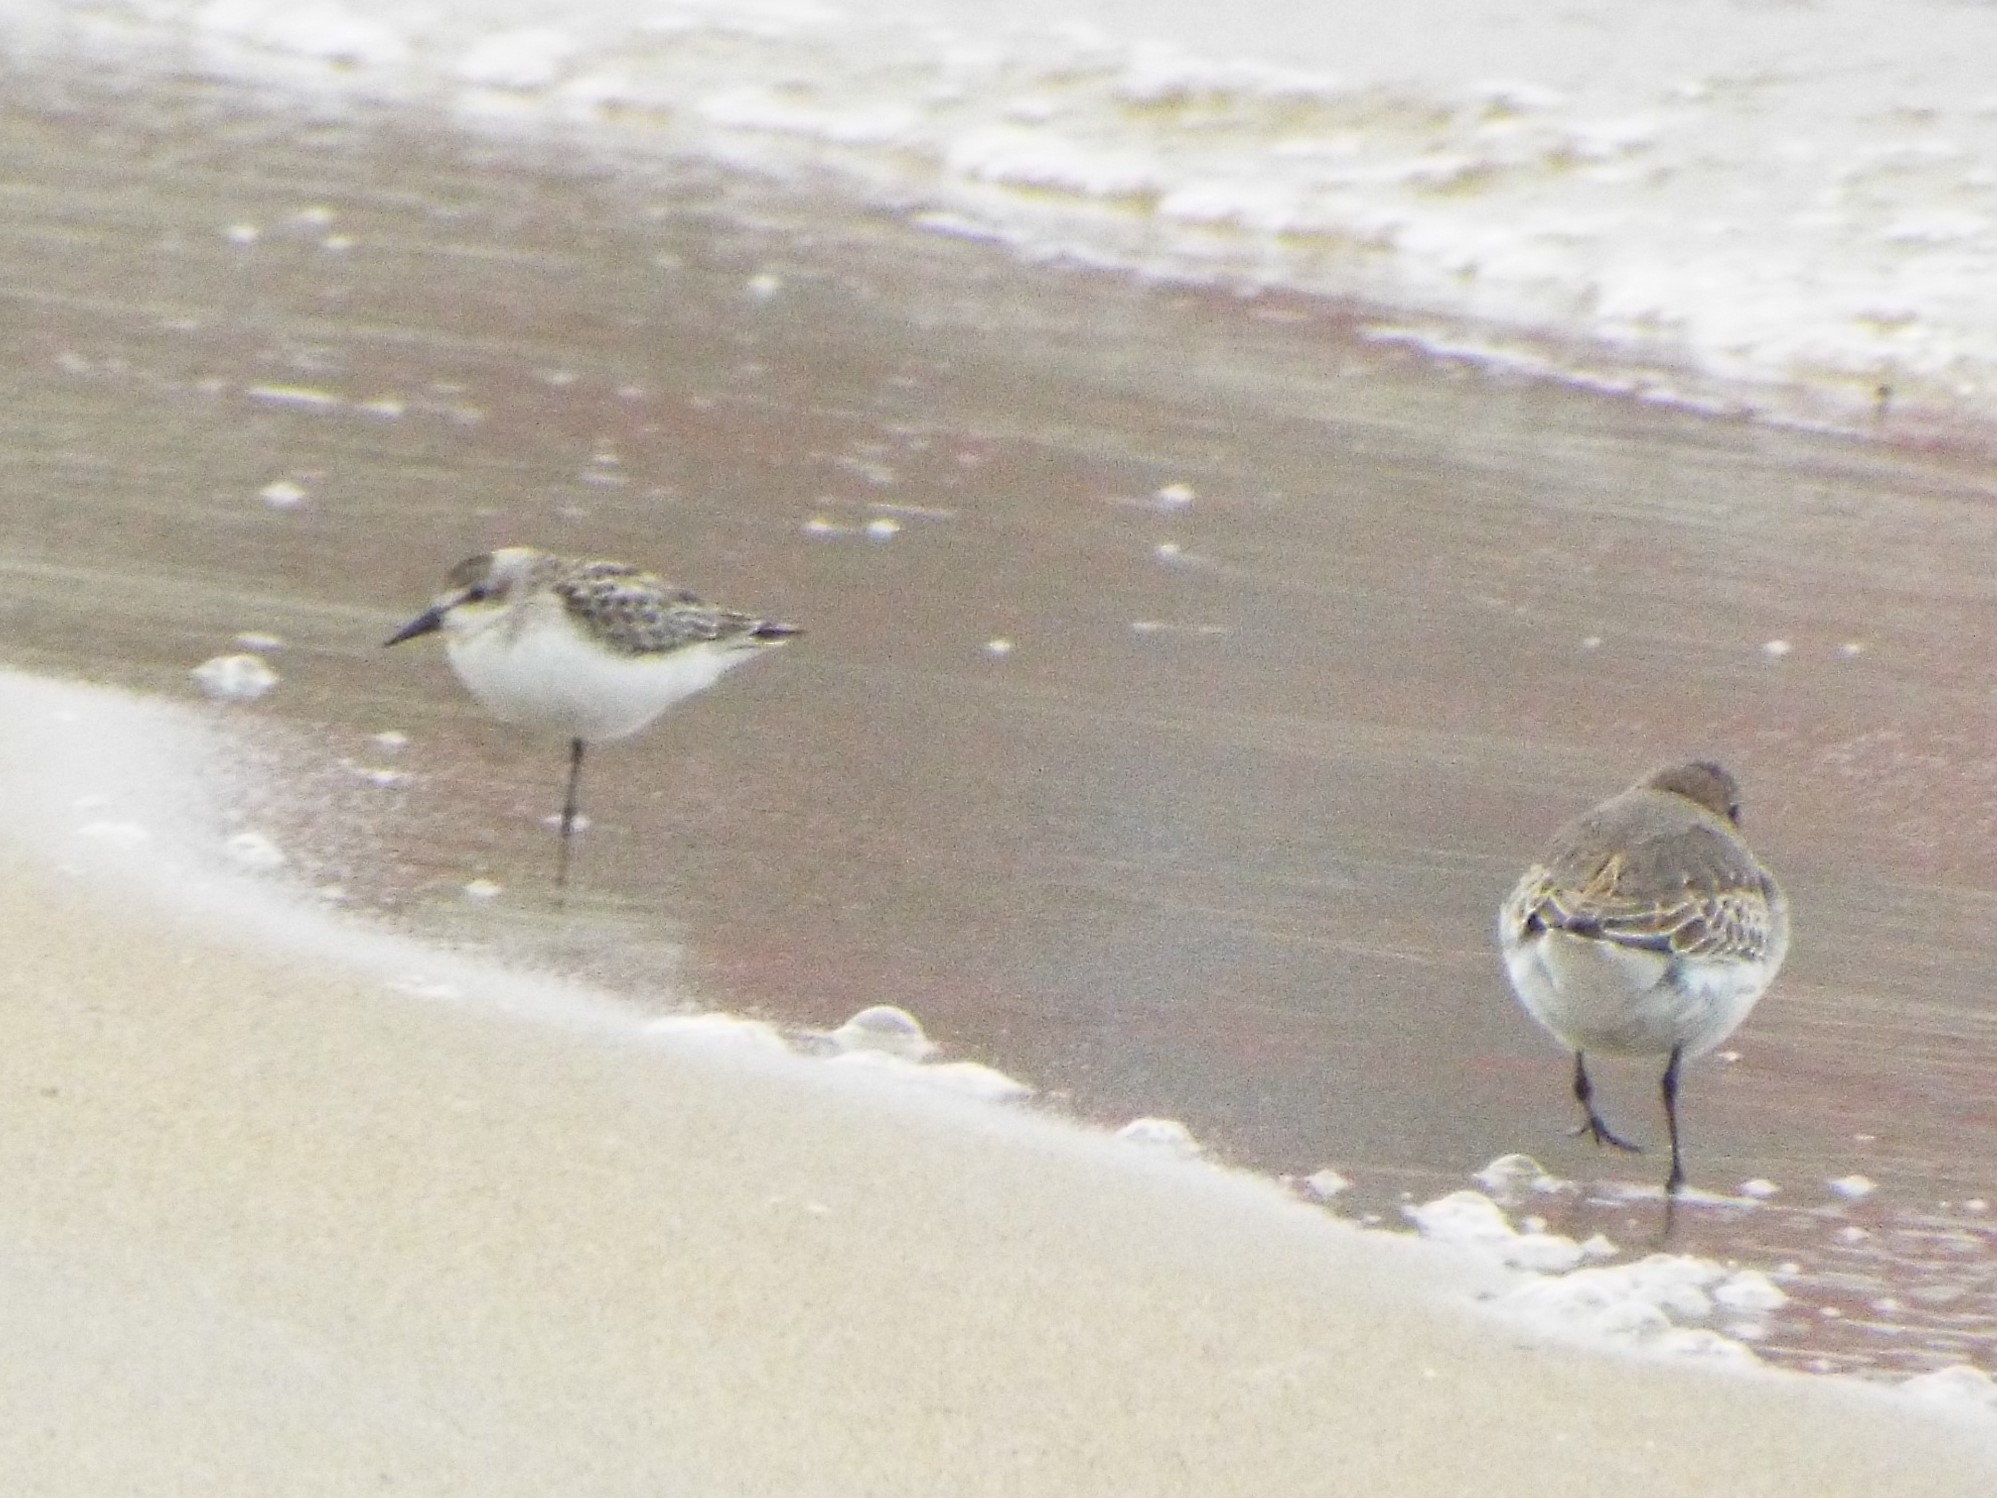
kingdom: Animalia
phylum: Chordata
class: Aves
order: Charadriiformes
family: Scolopacidae
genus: Calidris
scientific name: Calidris pusilla
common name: Semipalmated sandpiper
